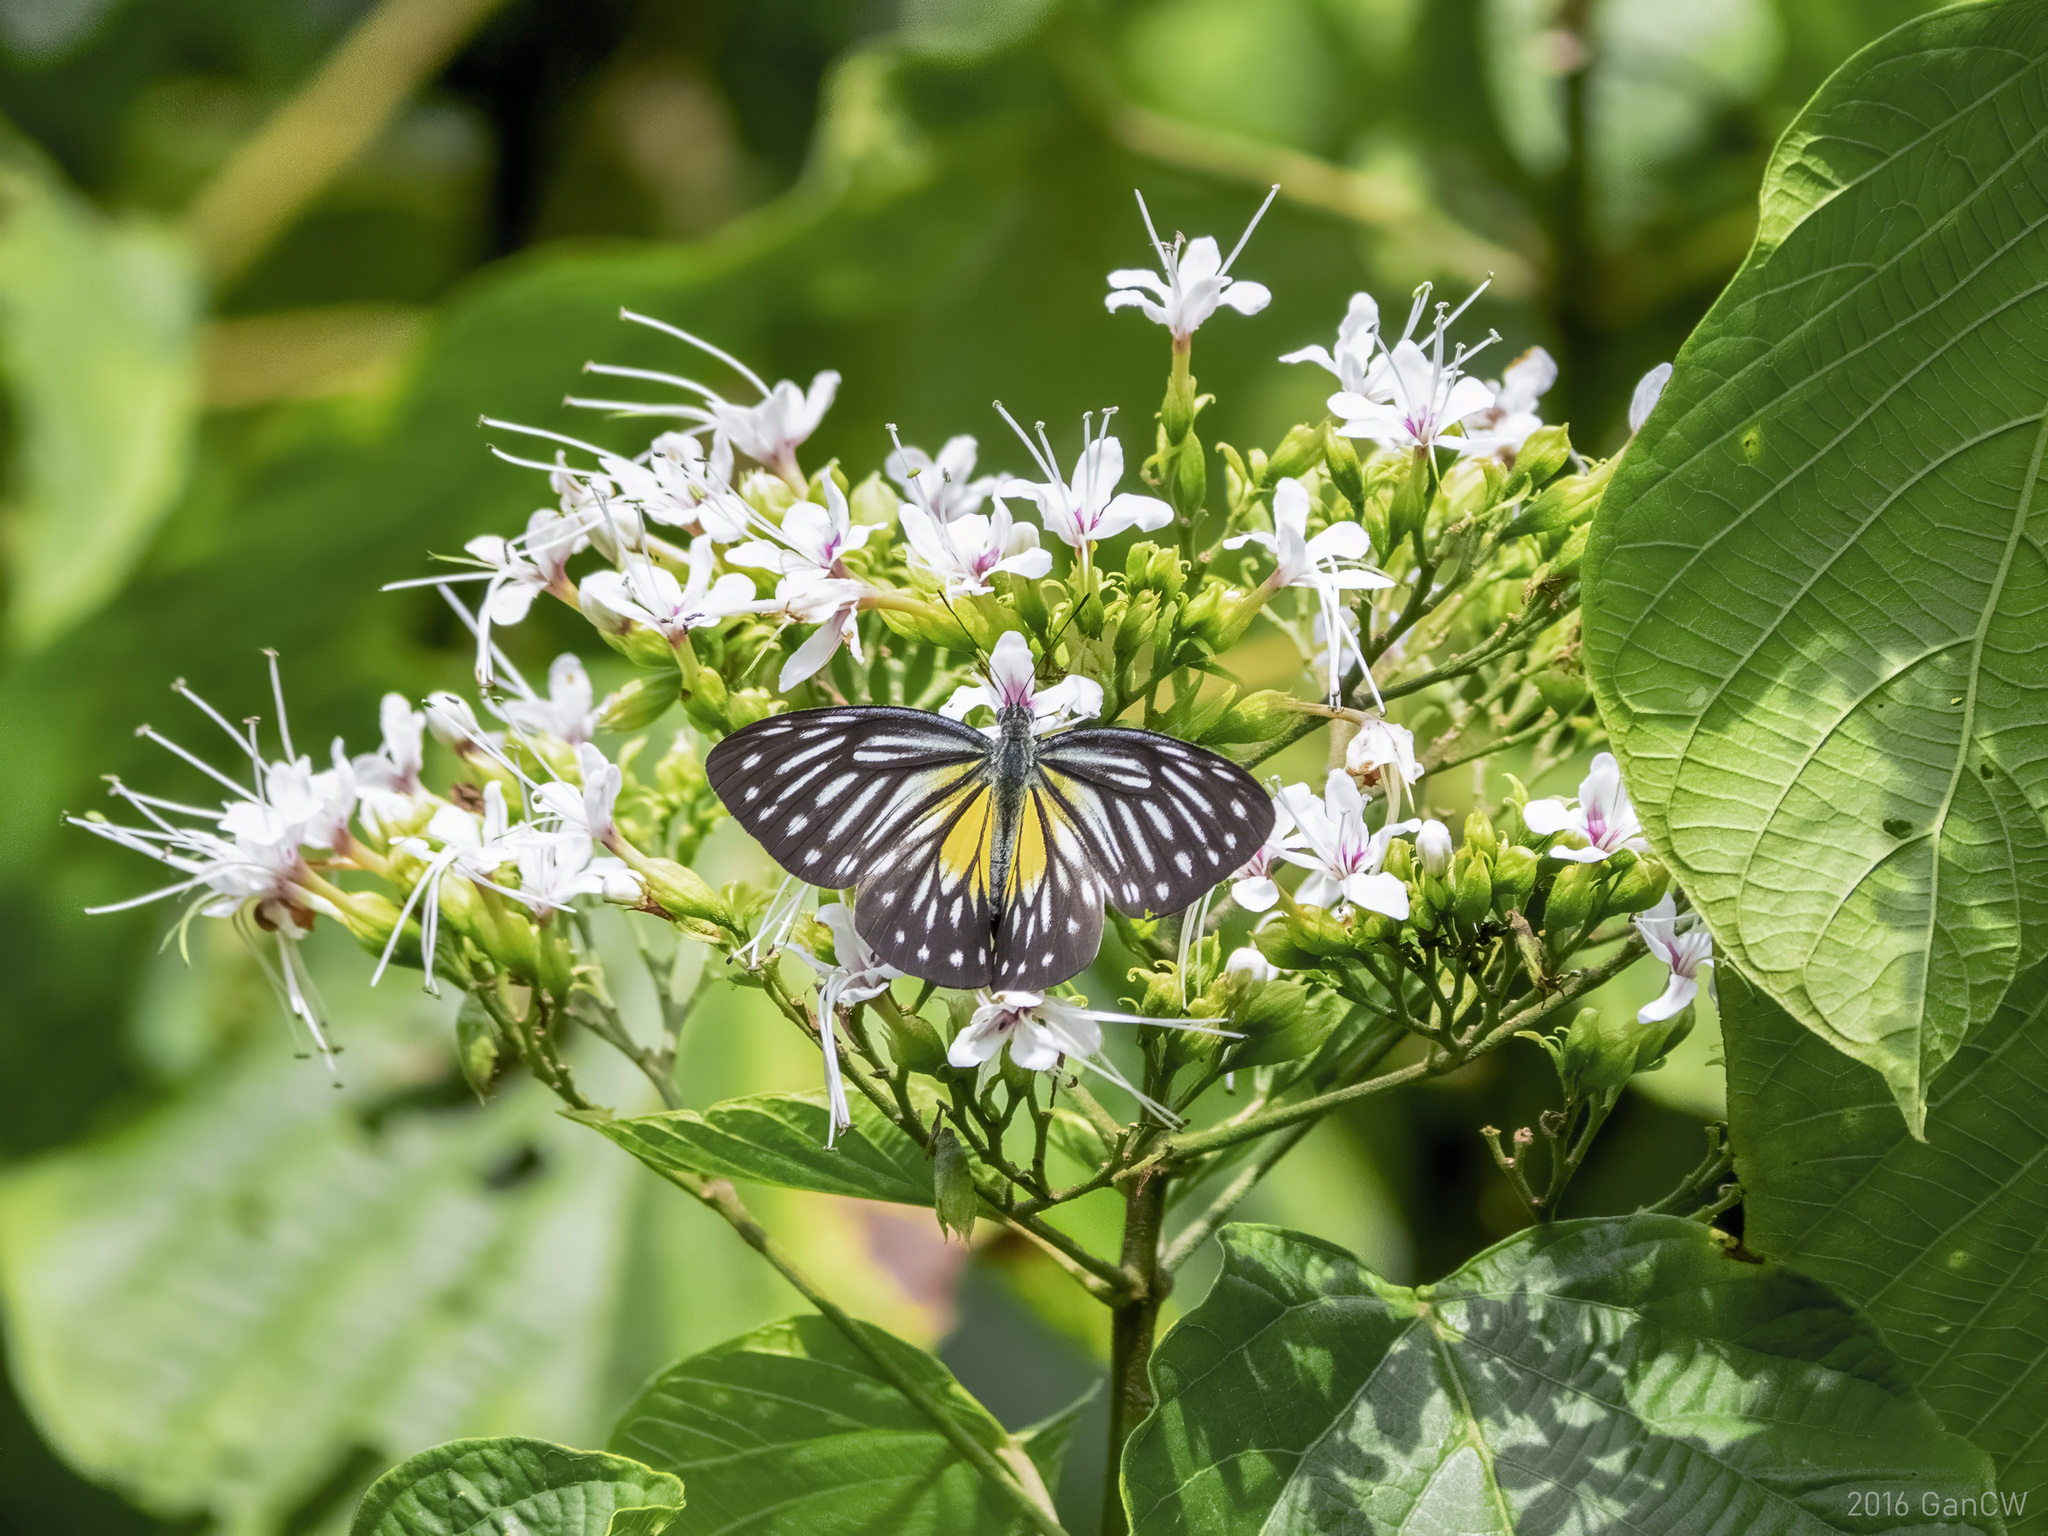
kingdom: Animalia
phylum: Arthropoda
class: Insecta
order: Lepidoptera
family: Pieridae
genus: Pareronia
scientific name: Pareronia valeria
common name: Common wanderer?
